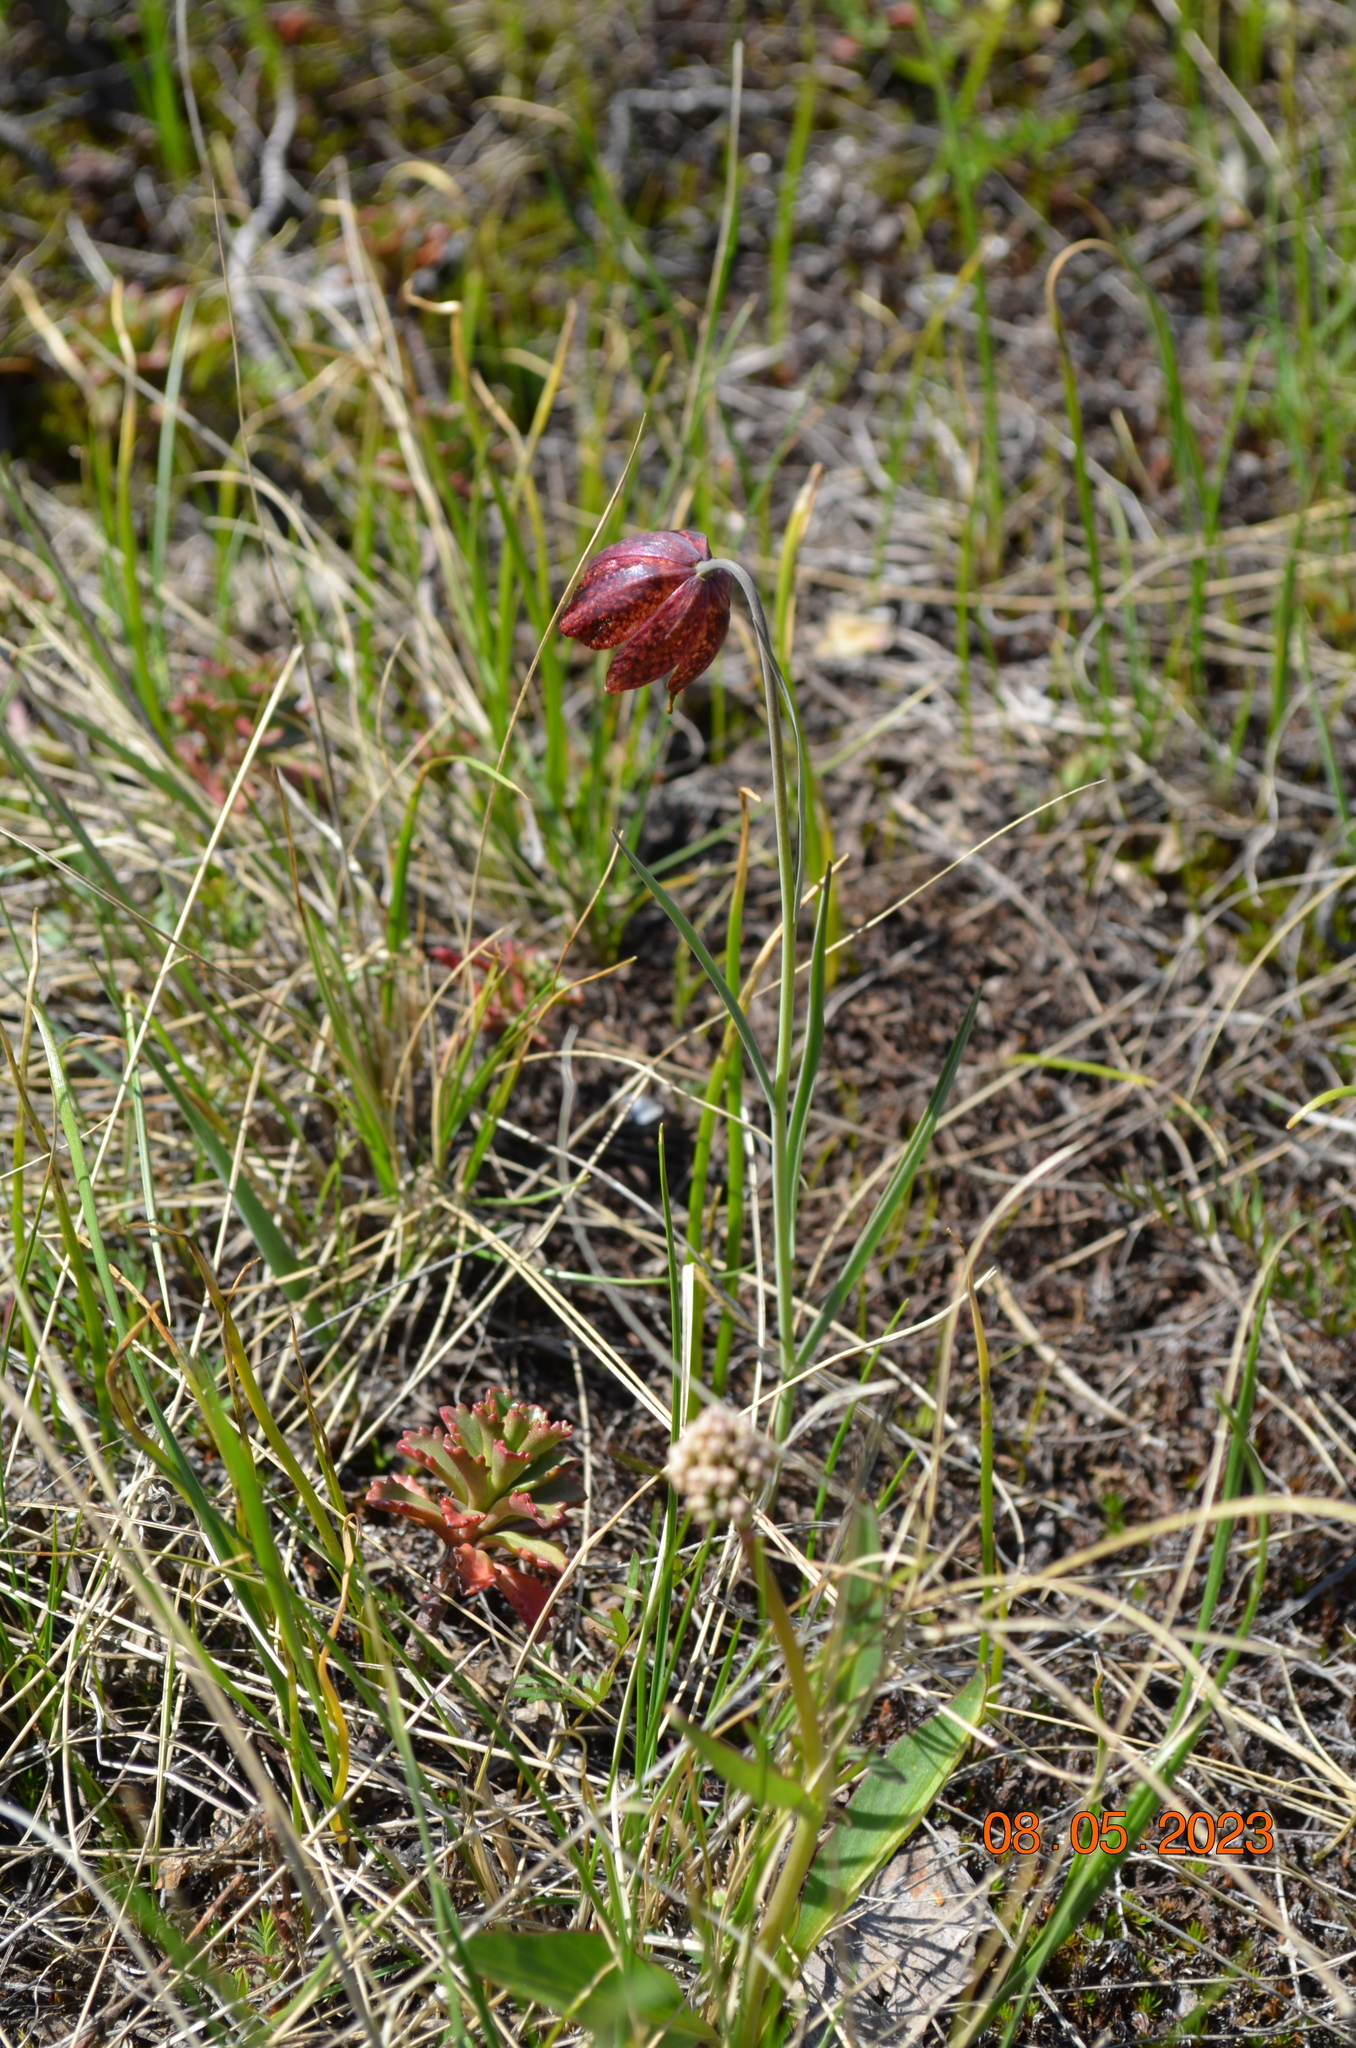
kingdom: Plantae
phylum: Tracheophyta
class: Liliopsida
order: Liliales
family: Liliaceae
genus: Fritillaria
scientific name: Fritillaria meleagroides
